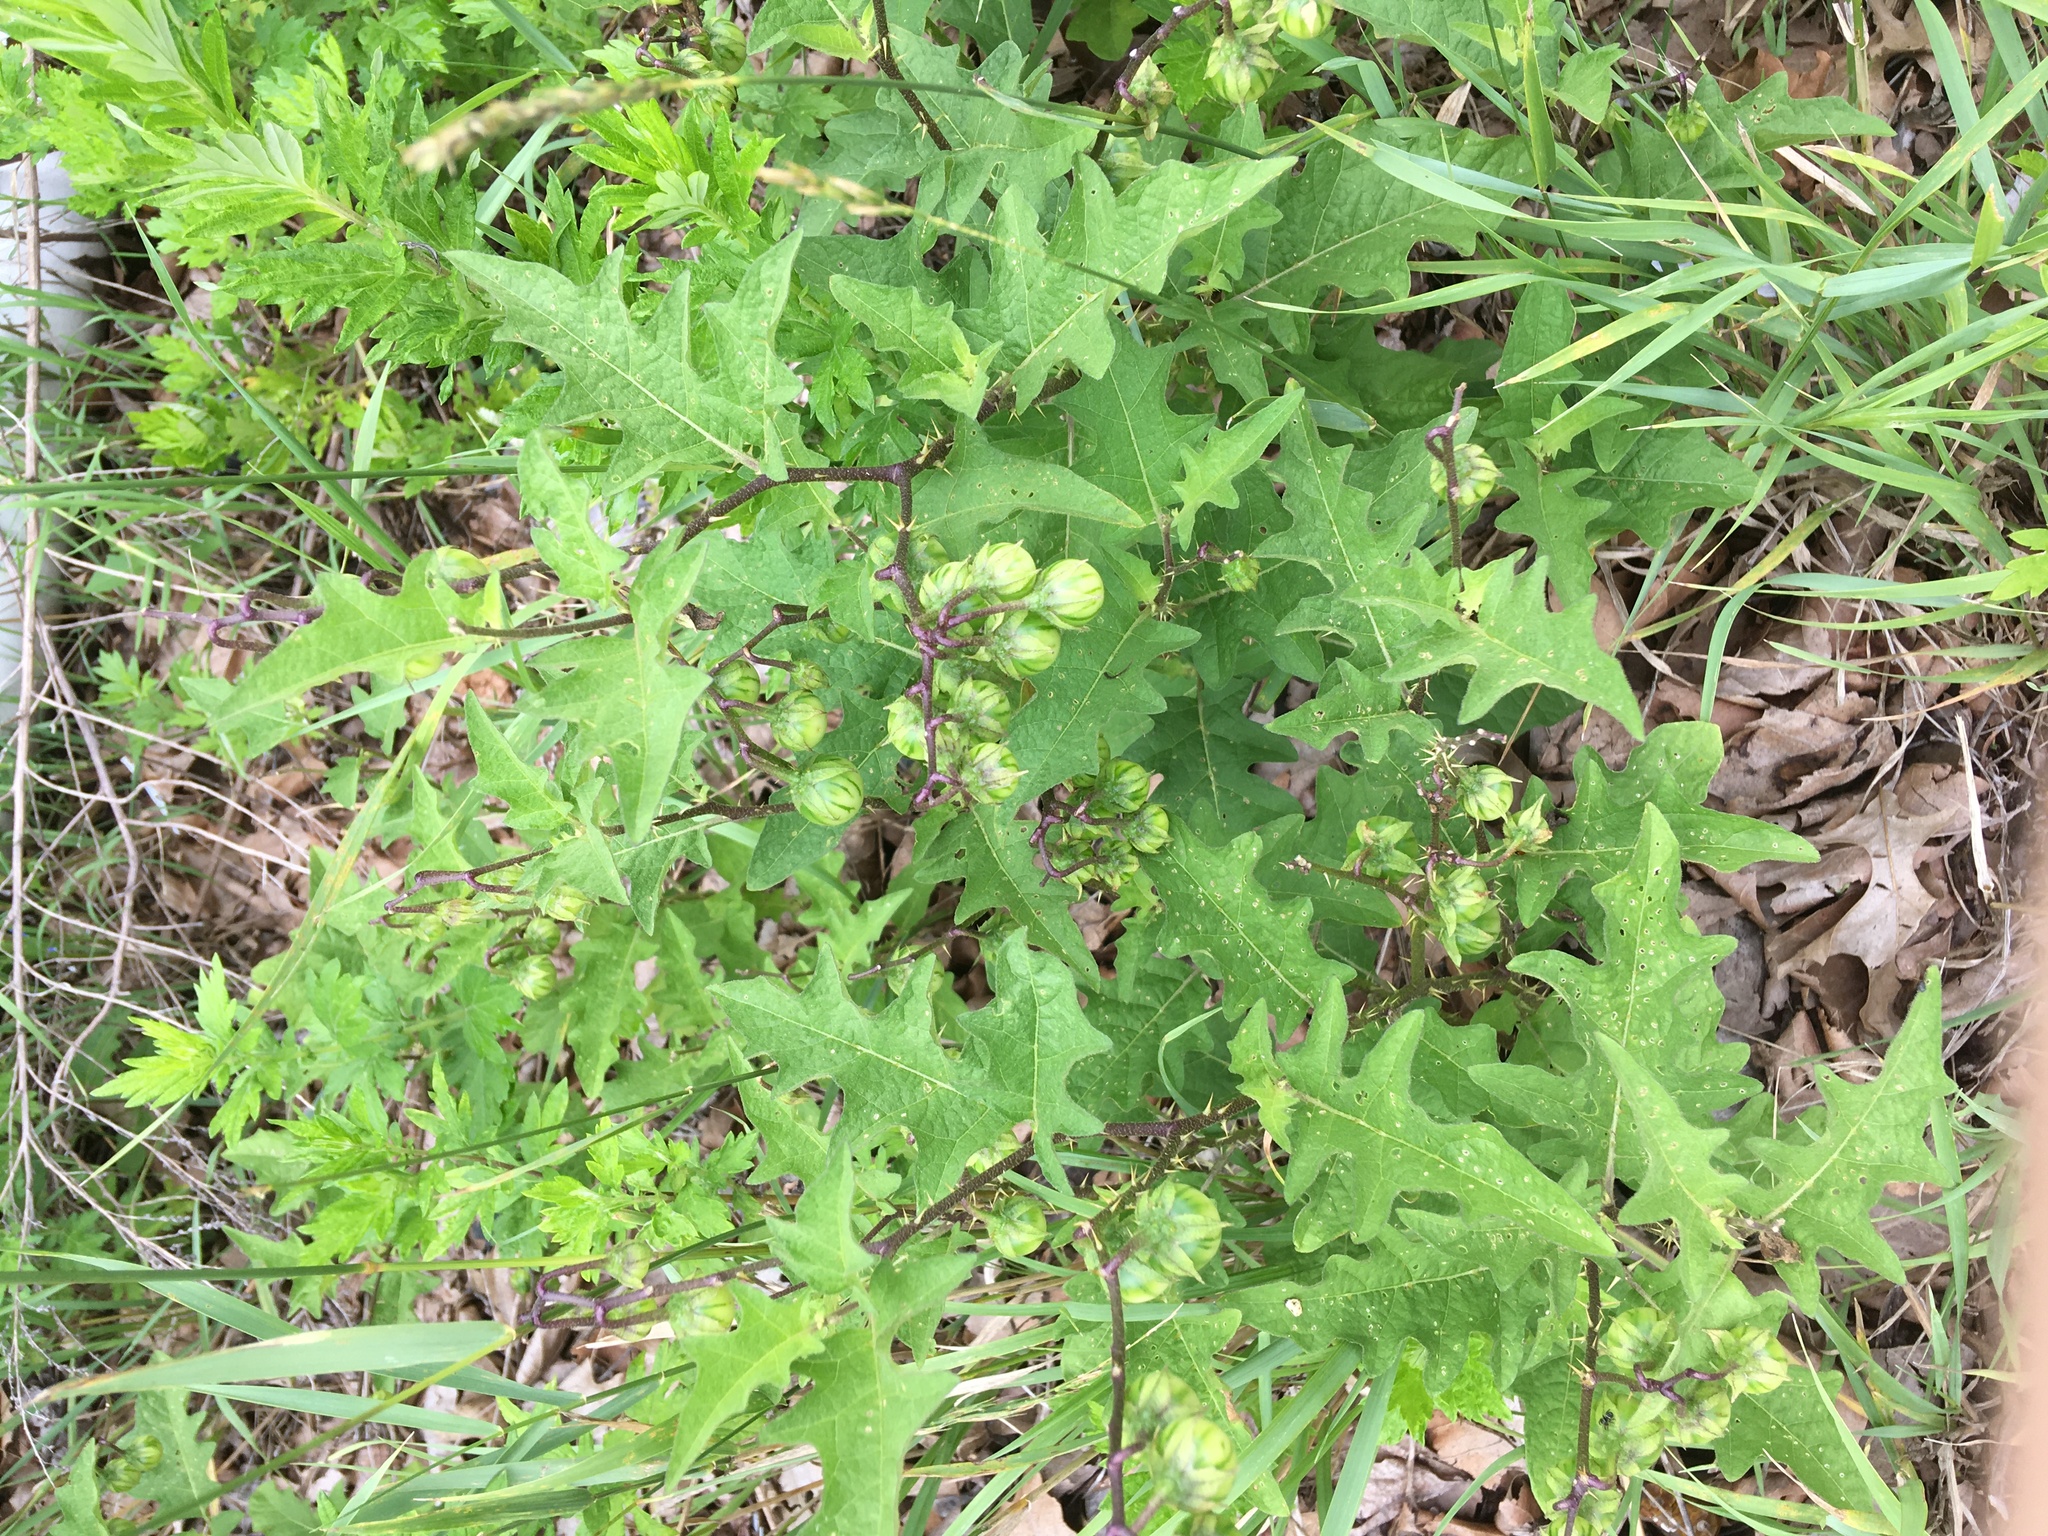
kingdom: Plantae
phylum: Tracheophyta
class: Magnoliopsida
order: Solanales
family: Solanaceae
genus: Solanum
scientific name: Solanum carolinense
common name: Horse-nettle
